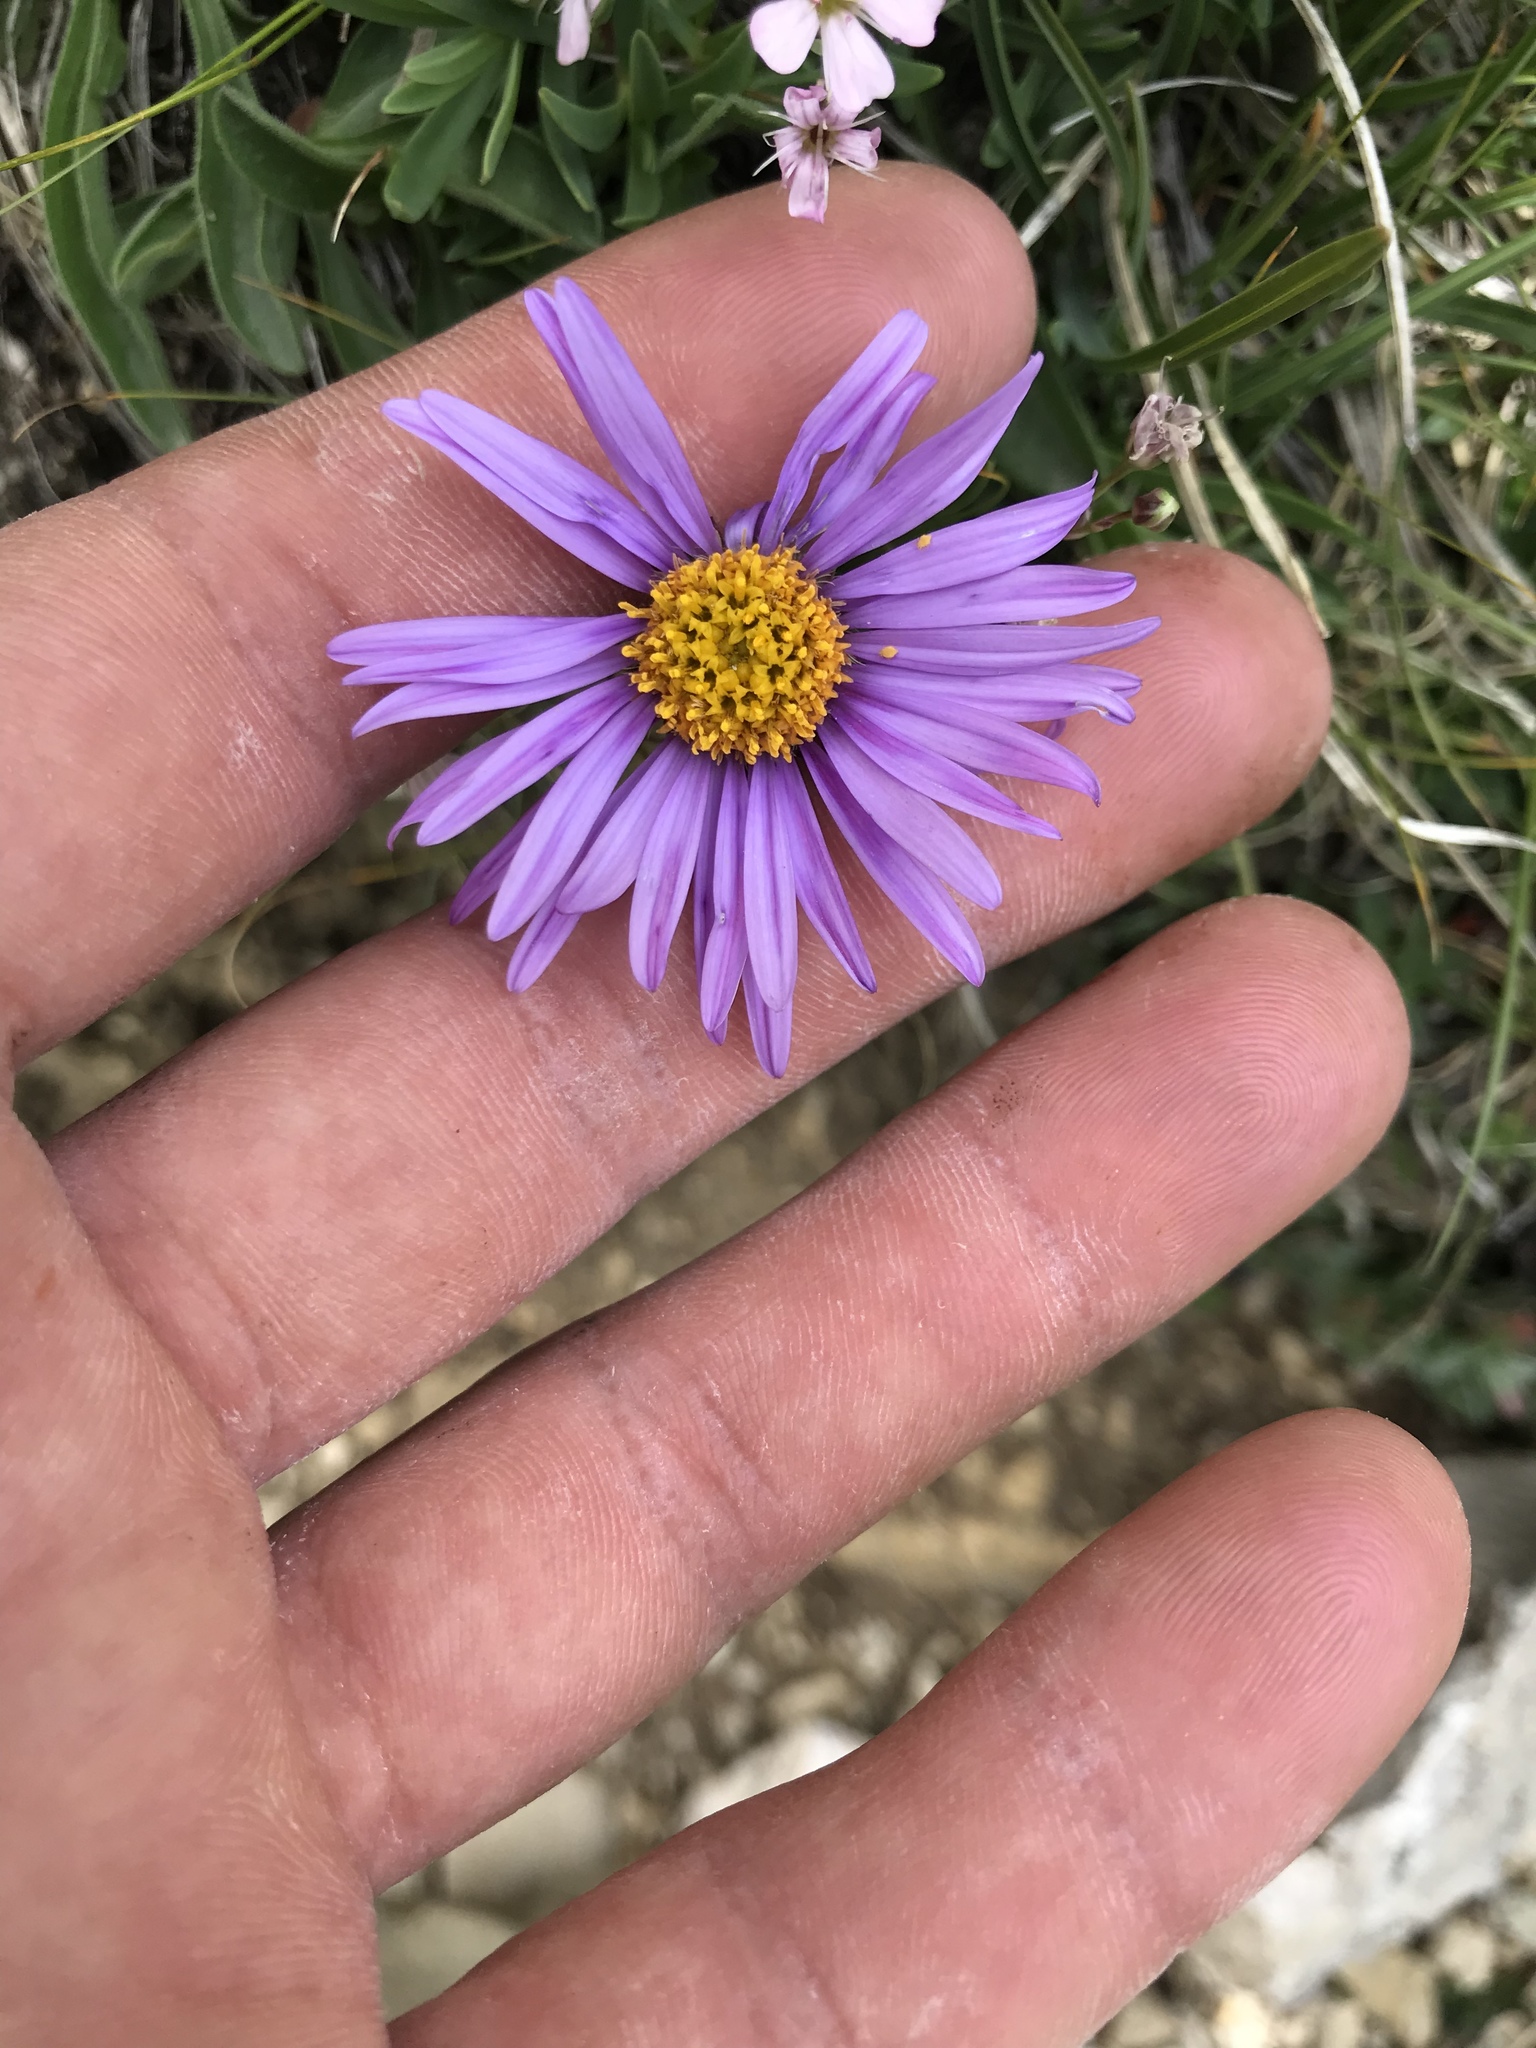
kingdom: Plantae
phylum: Tracheophyta
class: Magnoliopsida
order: Asterales
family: Asteraceae
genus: Aster
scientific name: Aster alpinus
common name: Alpine aster
